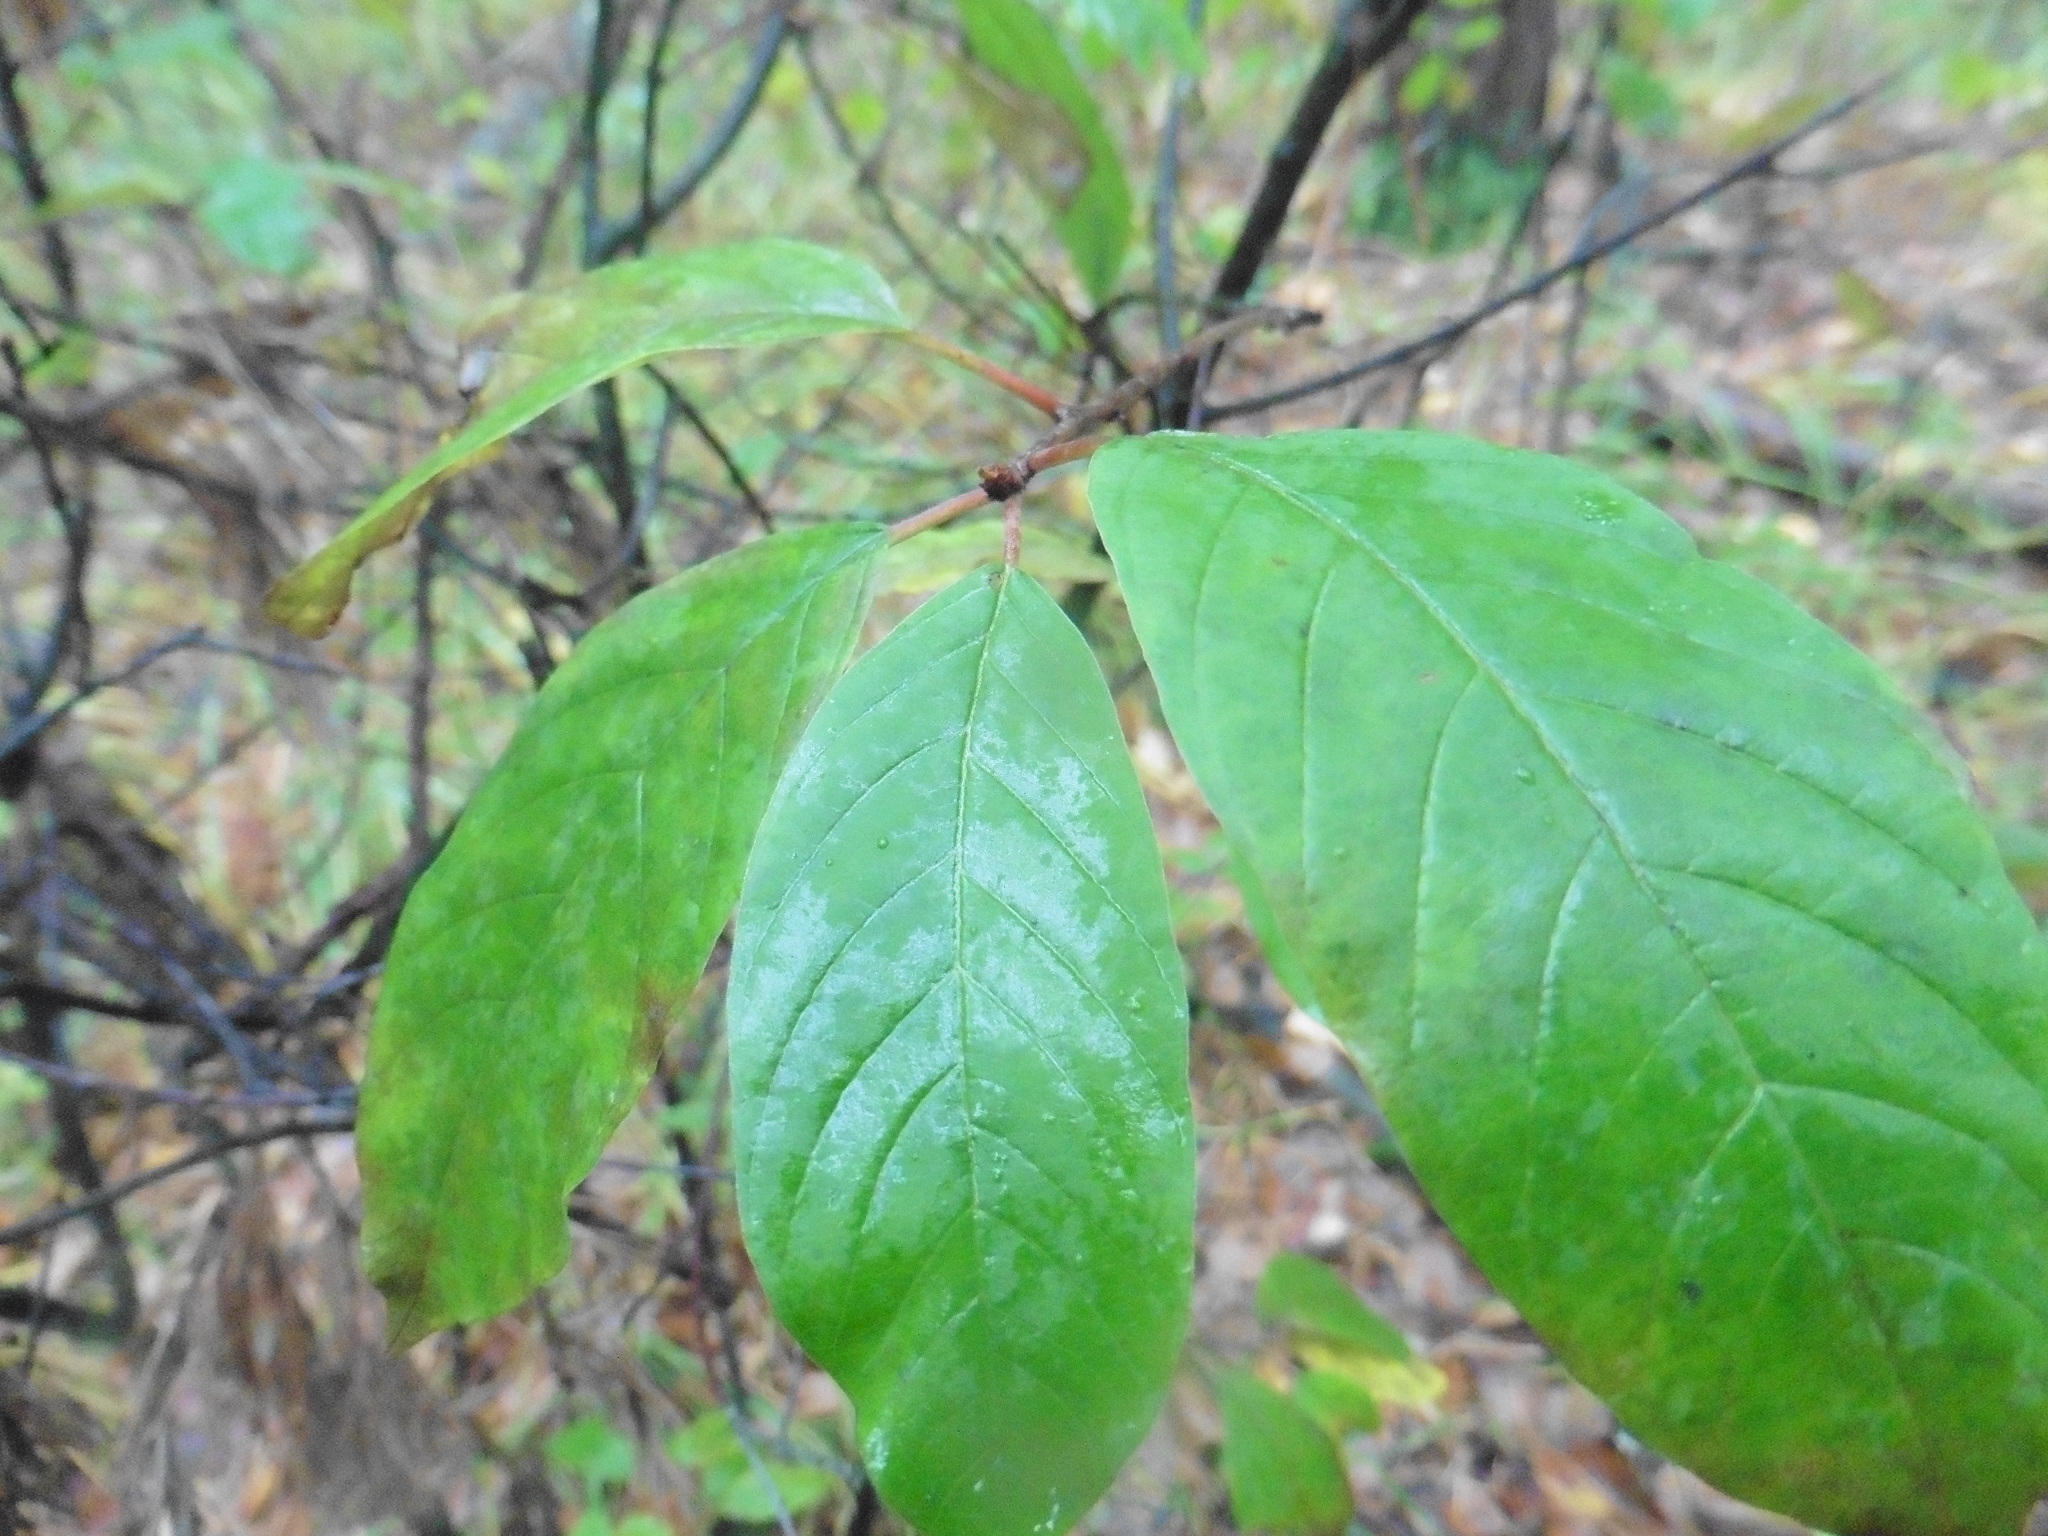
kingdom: Plantae
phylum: Tracheophyta
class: Magnoliopsida
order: Rosales
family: Rhamnaceae
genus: Frangula
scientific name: Frangula alnus
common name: Alder buckthorn
